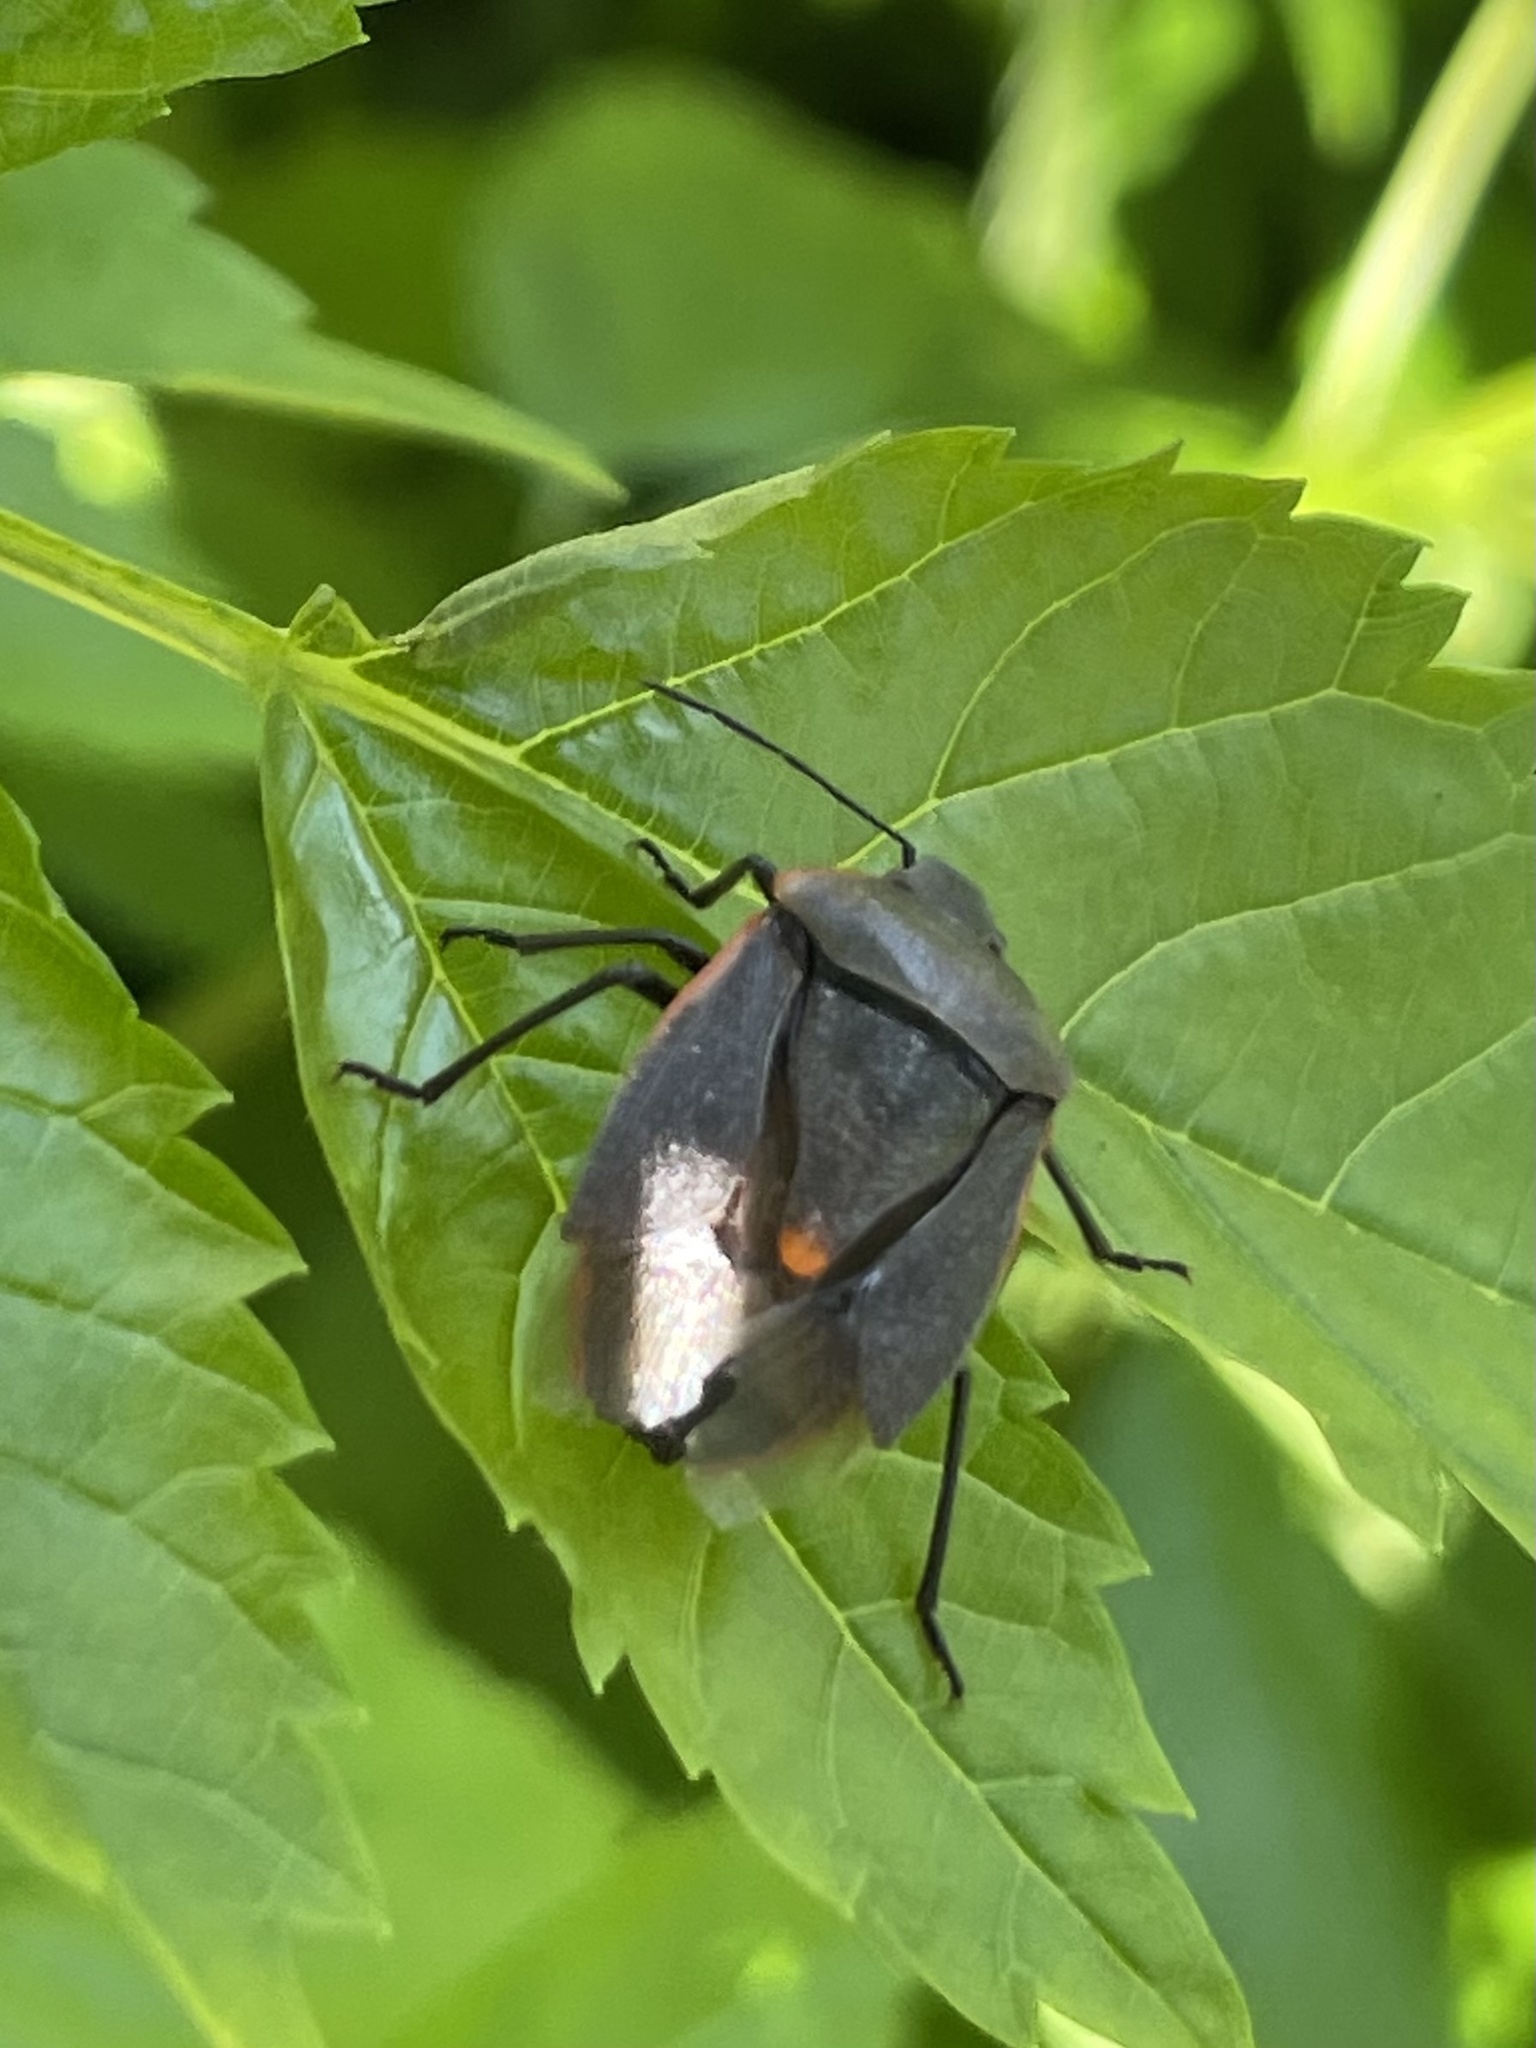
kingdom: Animalia
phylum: Arthropoda
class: Insecta
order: Hemiptera
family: Pentatomidae
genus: Chlorochroa
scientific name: Chlorochroa ligata
